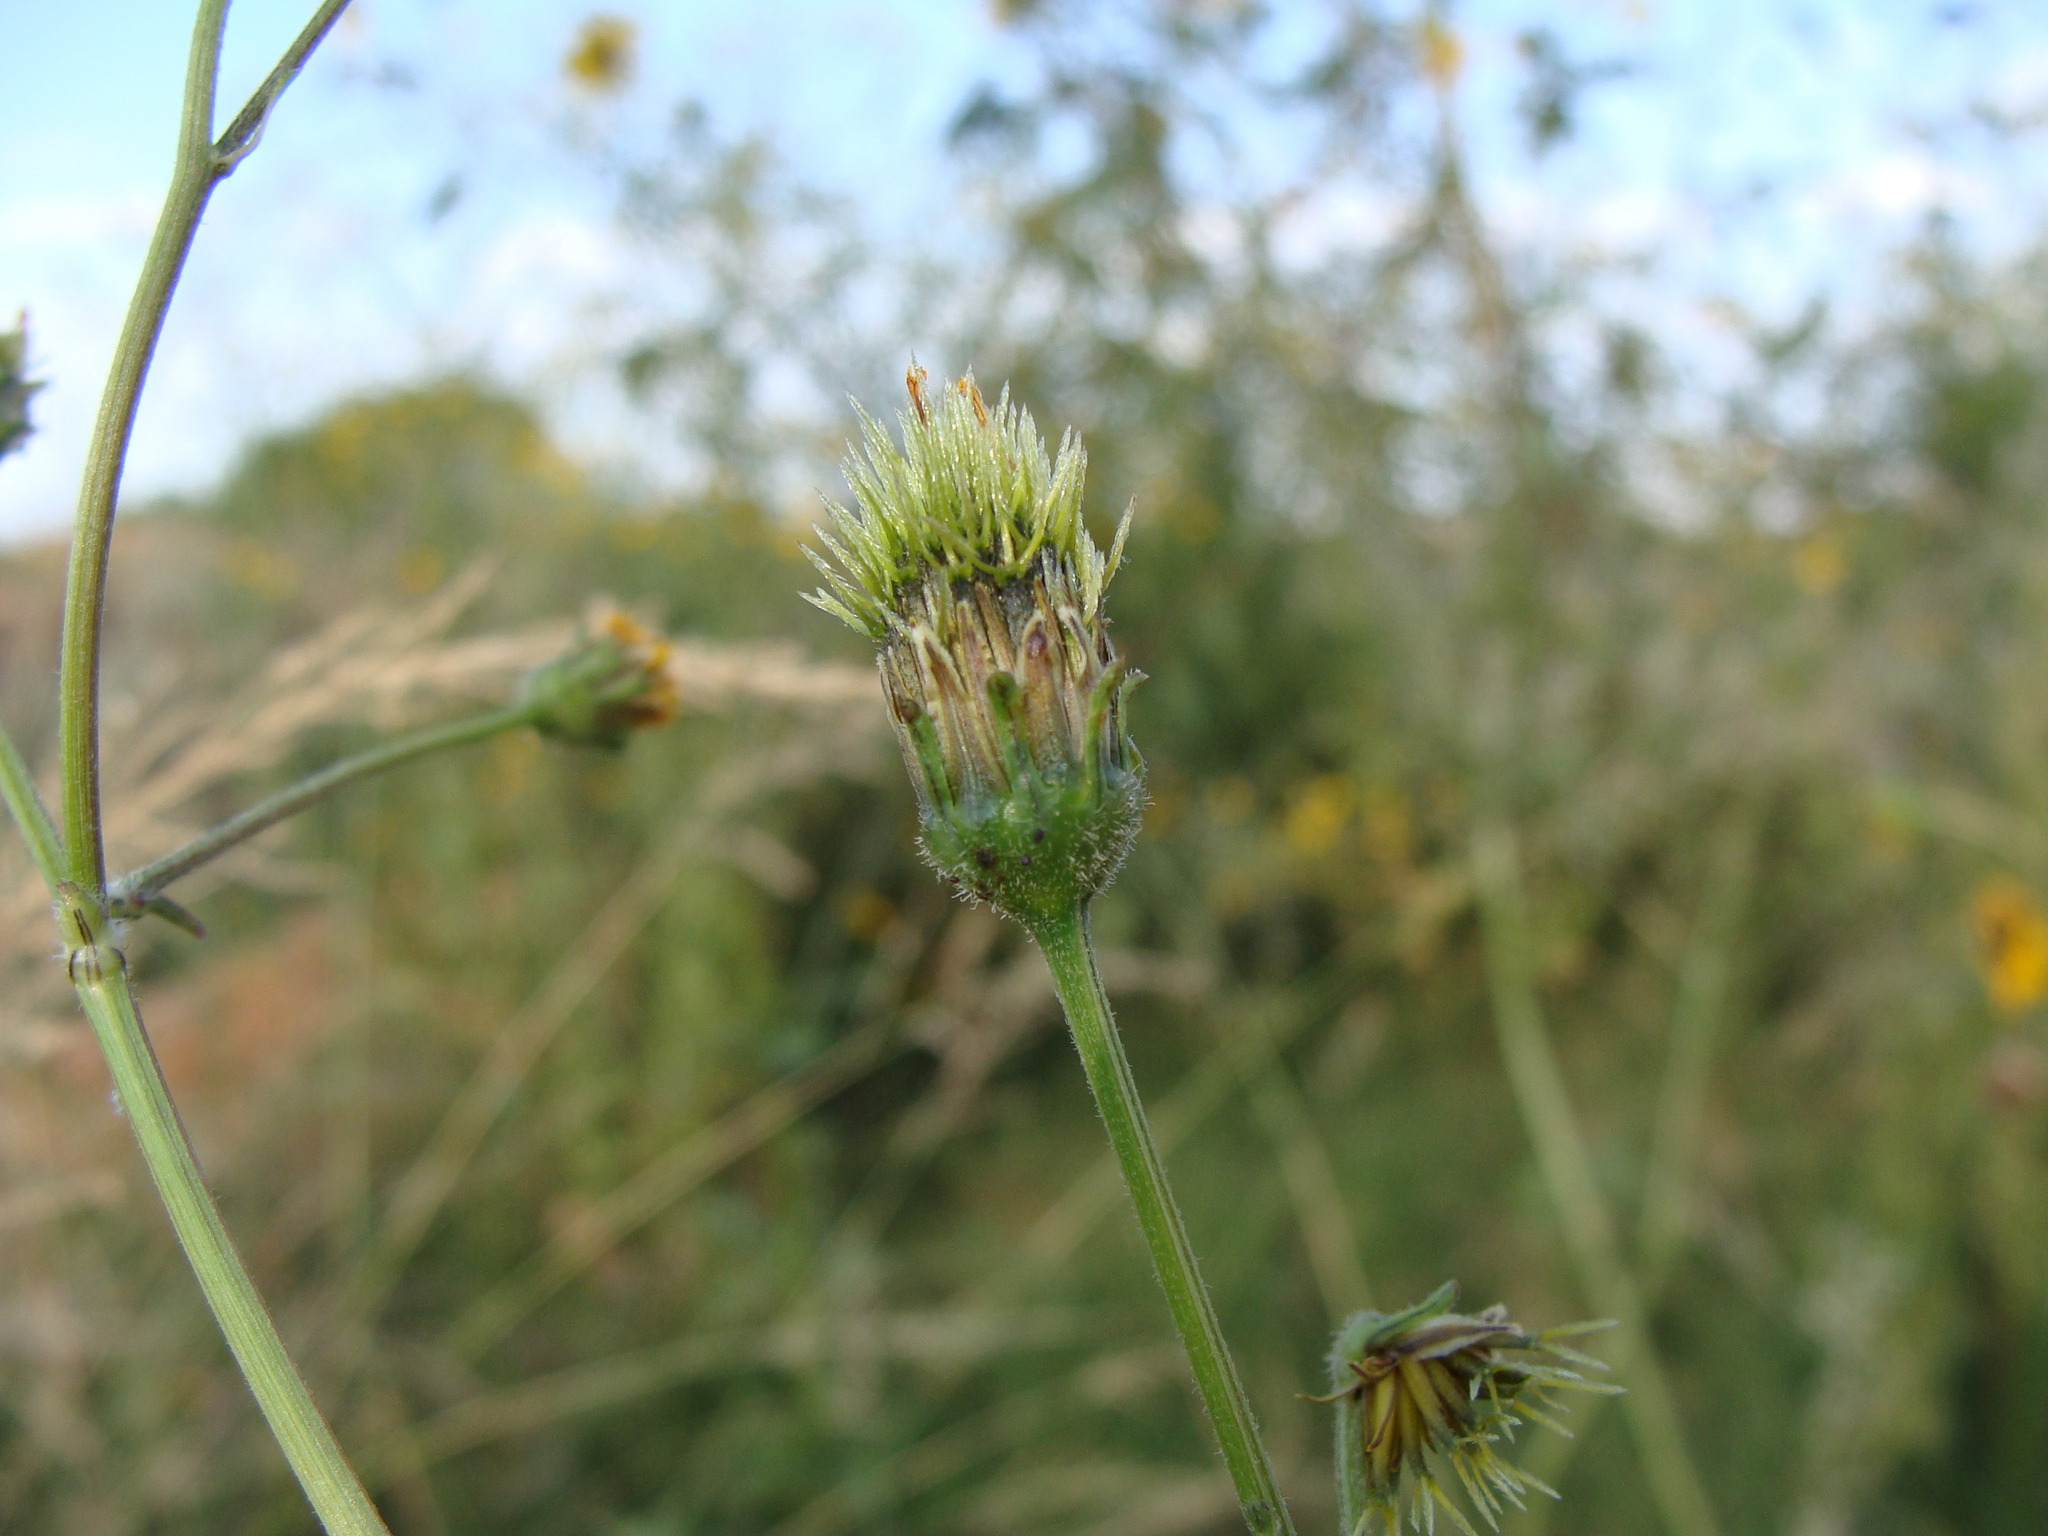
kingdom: Plantae
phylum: Tracheophyta
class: Magnoliopsida
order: Asterales
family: Asteraceae
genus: Bidens
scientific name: Bidens pilosa
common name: Black-jack
